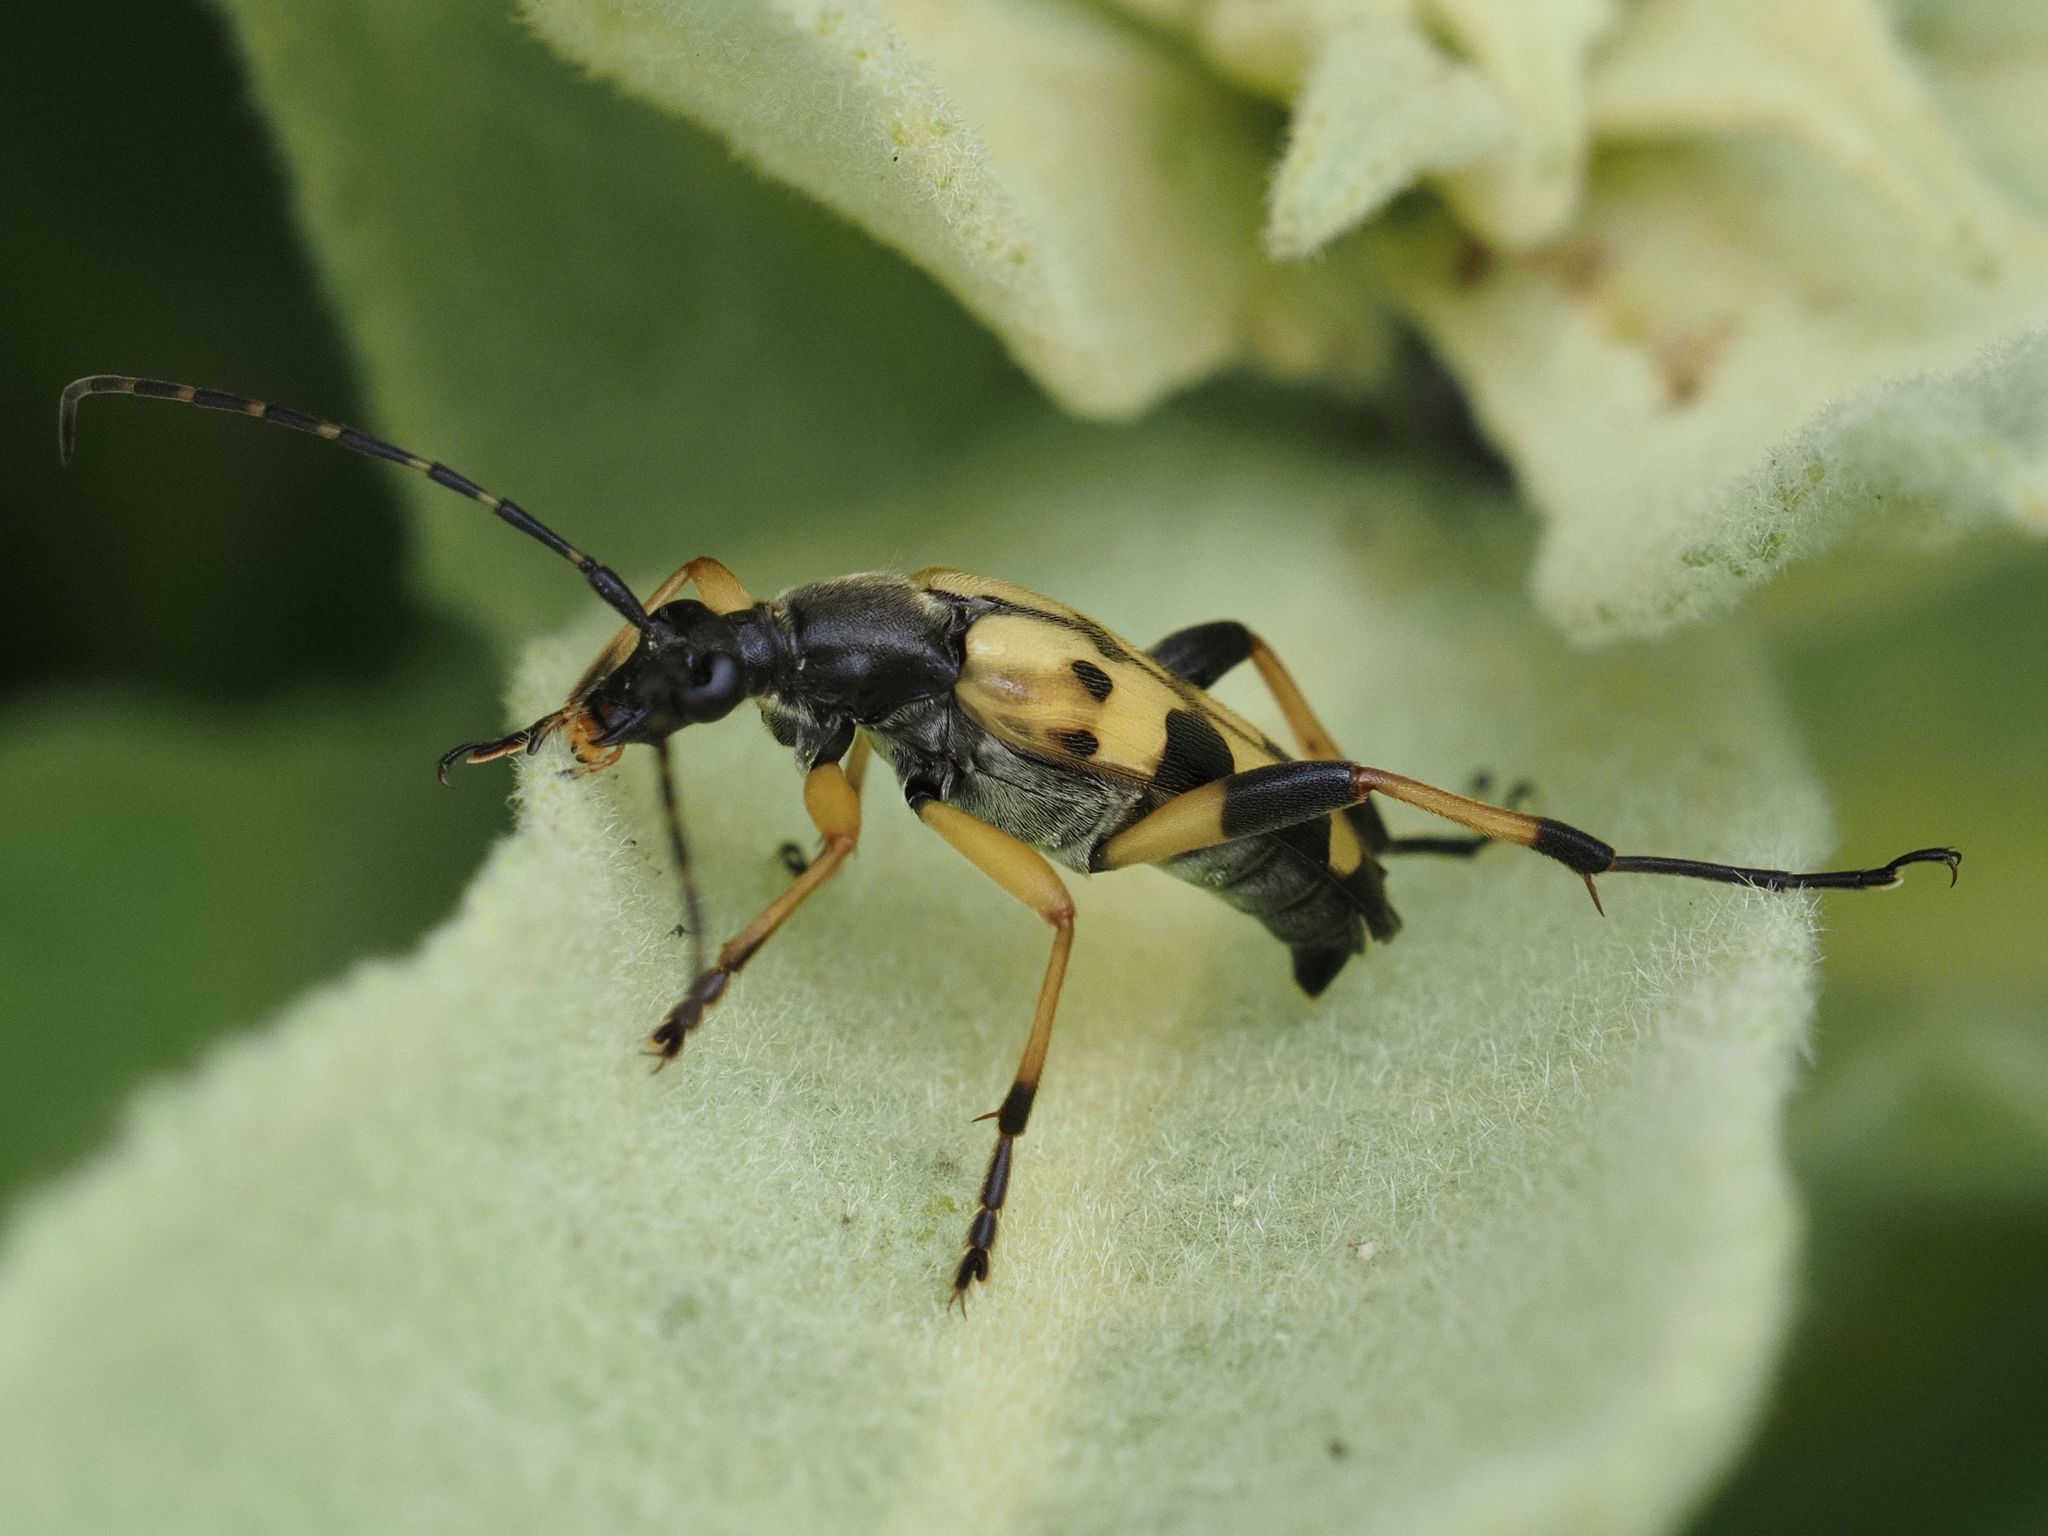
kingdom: Animalia
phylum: Arthropoda
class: Insecta
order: Coleoptera
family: Cerambycidae
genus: Rutpela
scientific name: Rutpela maculata
